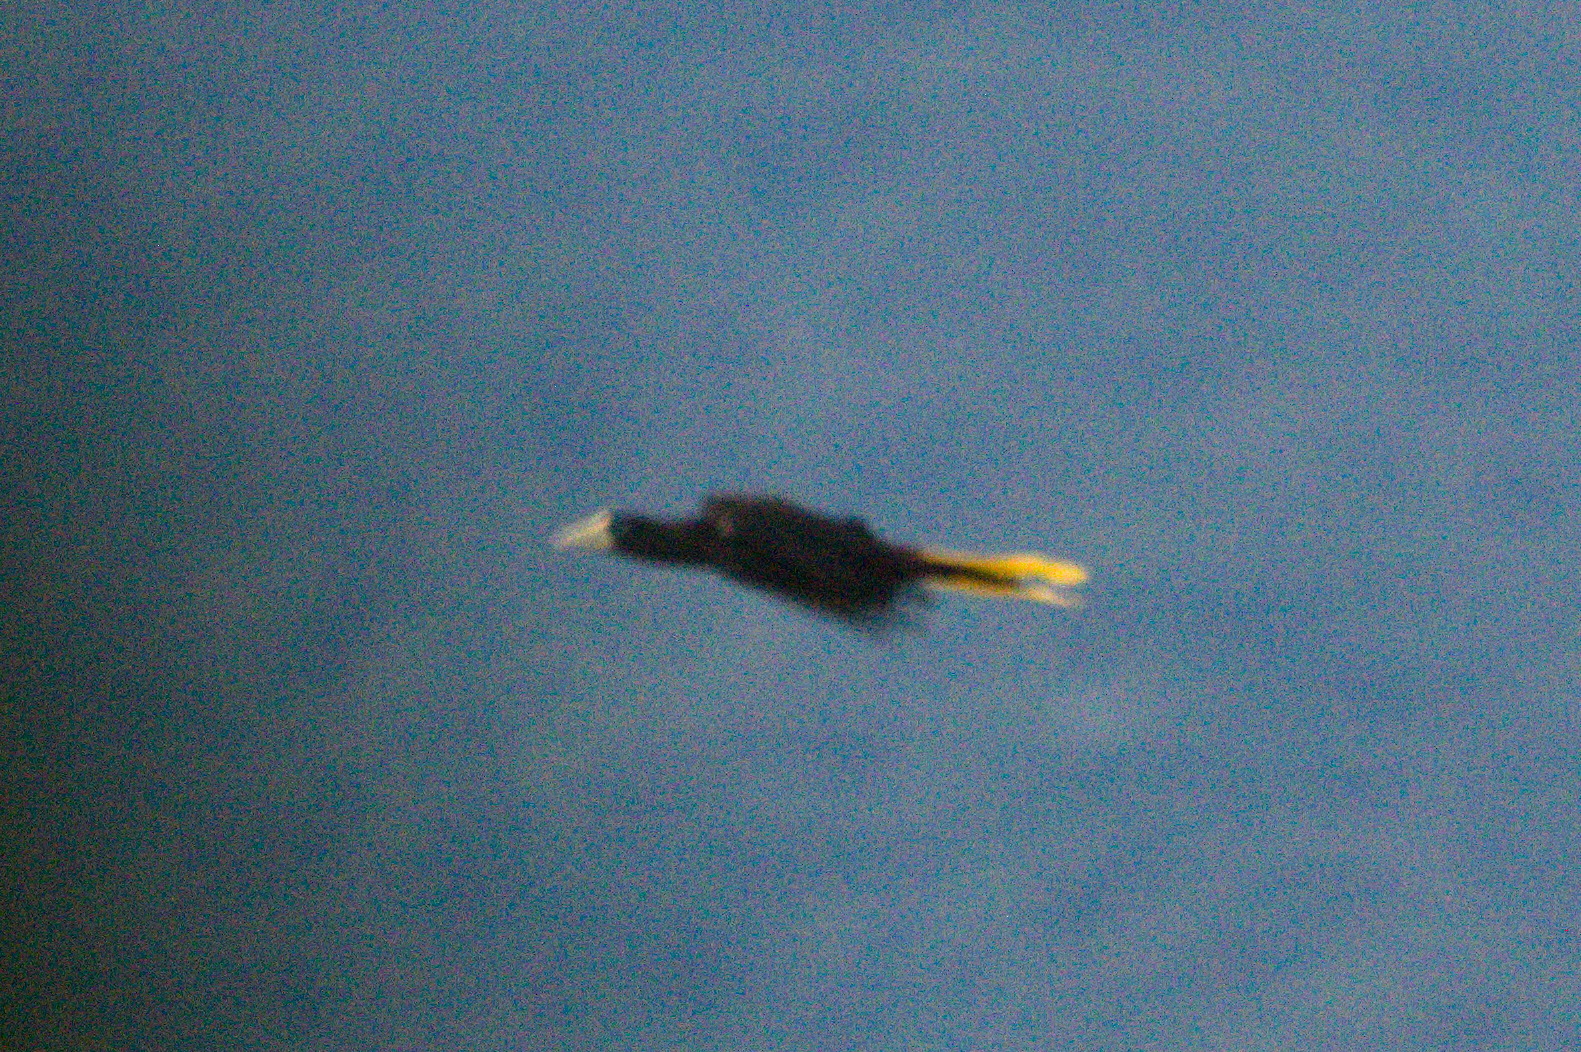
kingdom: Animalia
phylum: Chordata
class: Aves
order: Passeriformes
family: Icteridae
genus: Psarocolius
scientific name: Psarocolius decumanus
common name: Crested oropendola
